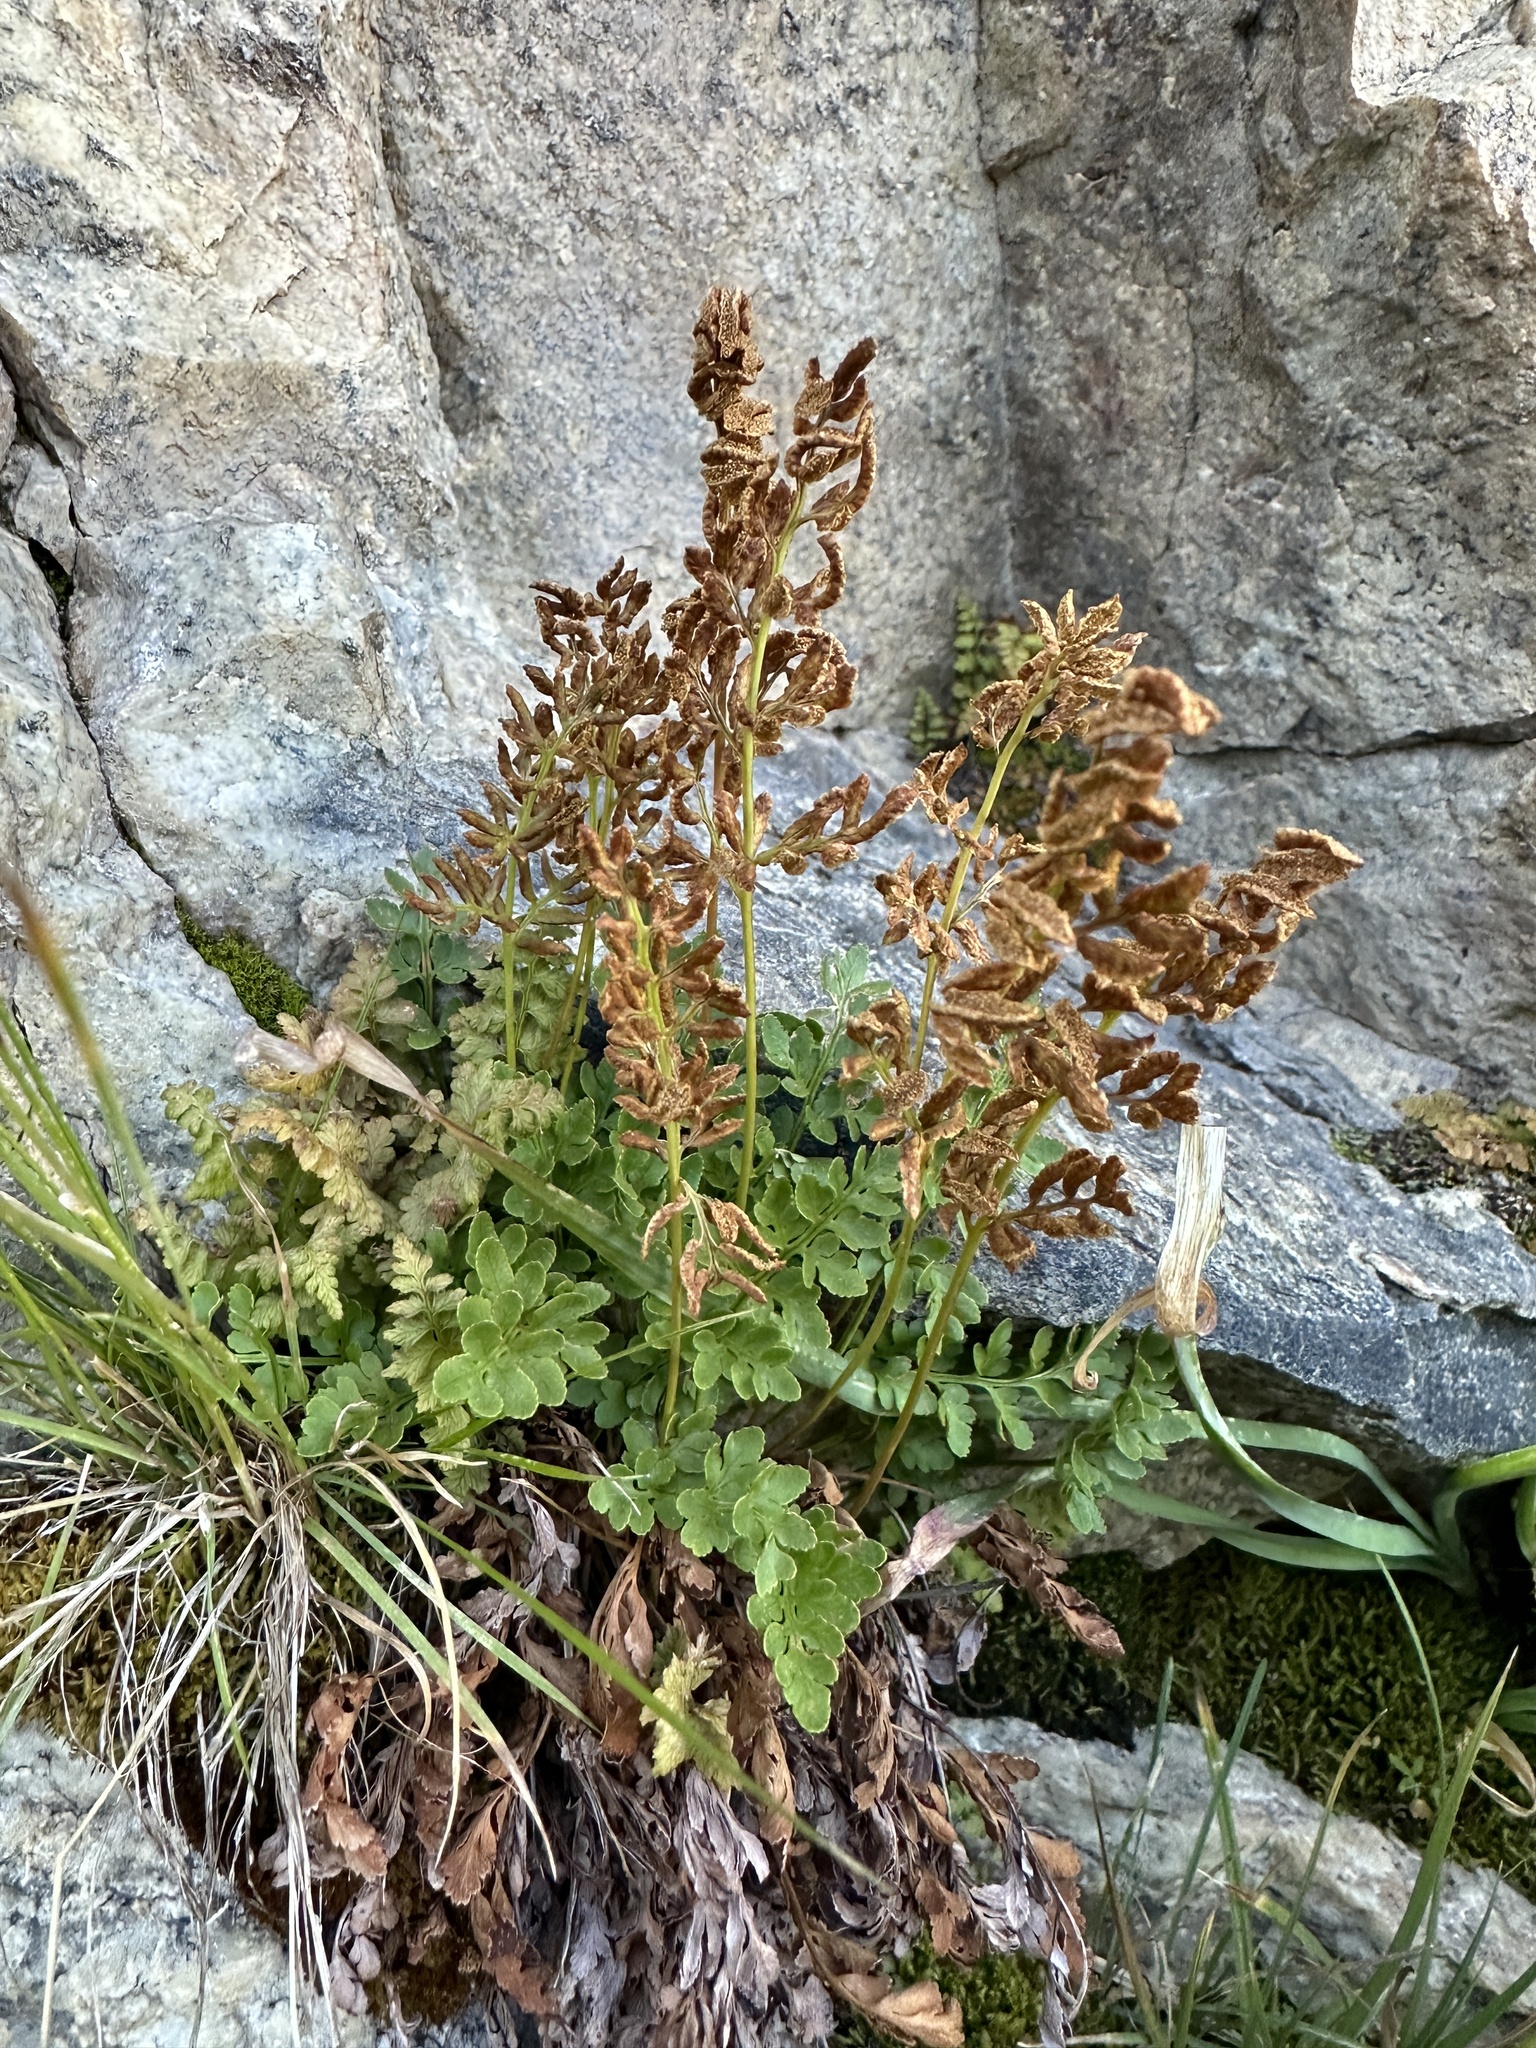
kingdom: Plantae
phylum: Tracheophyta
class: Polypodiopsida
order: Polypodiales
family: Pteridaceae
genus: Cryptogramma
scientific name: Cryptogramma acrostichoides
